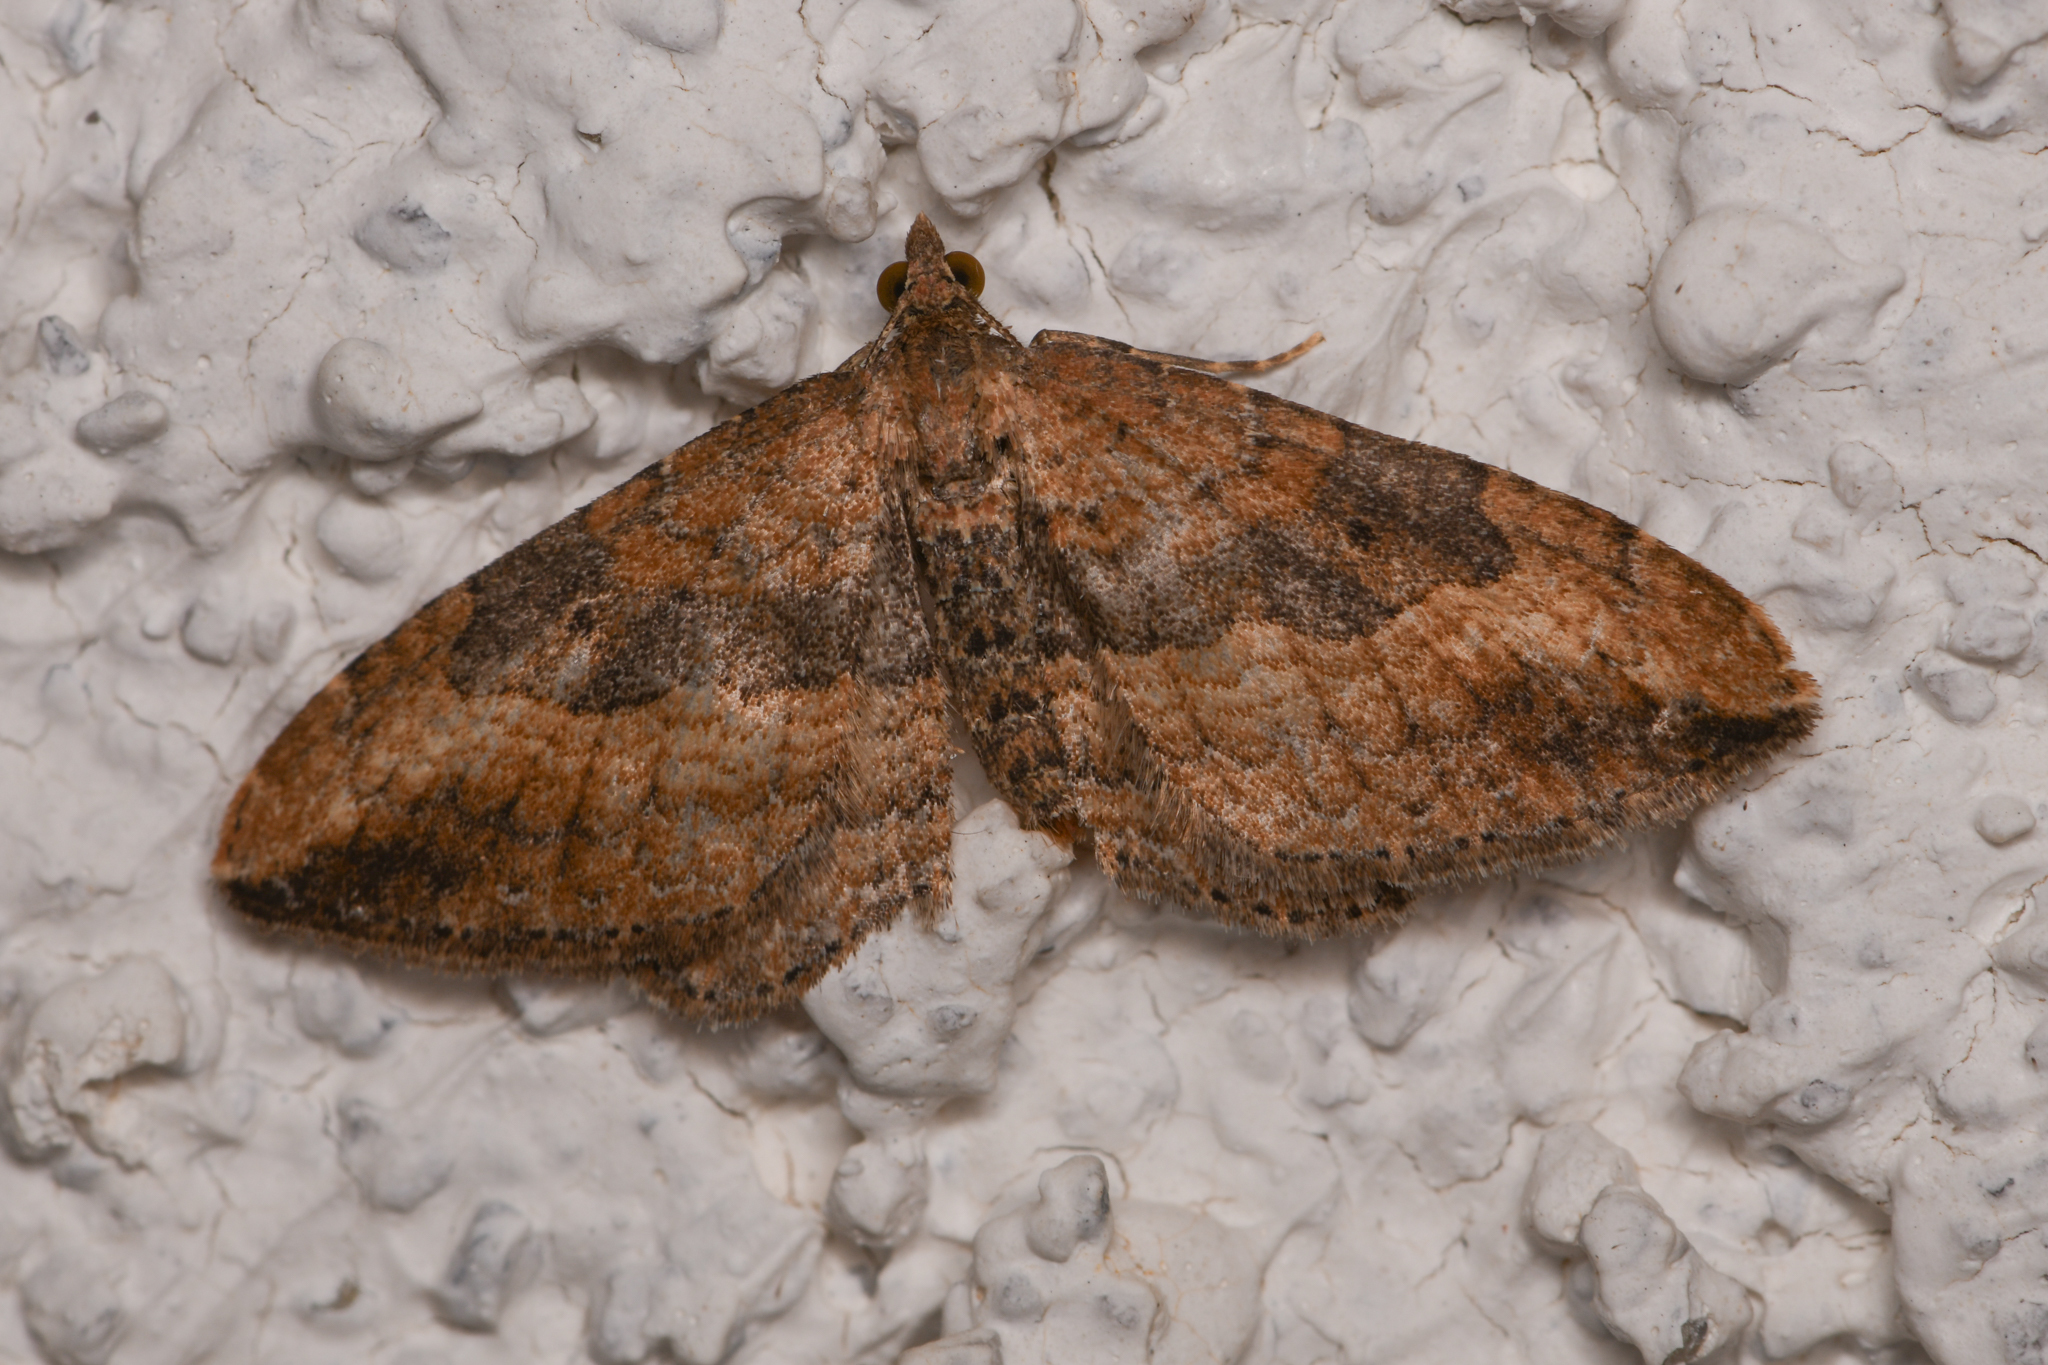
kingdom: Animalia
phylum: Arthropoda
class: Insecta
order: Lepidoptera
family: Geometridae
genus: Orthonama
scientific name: Orthonama obstipata
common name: The gem
